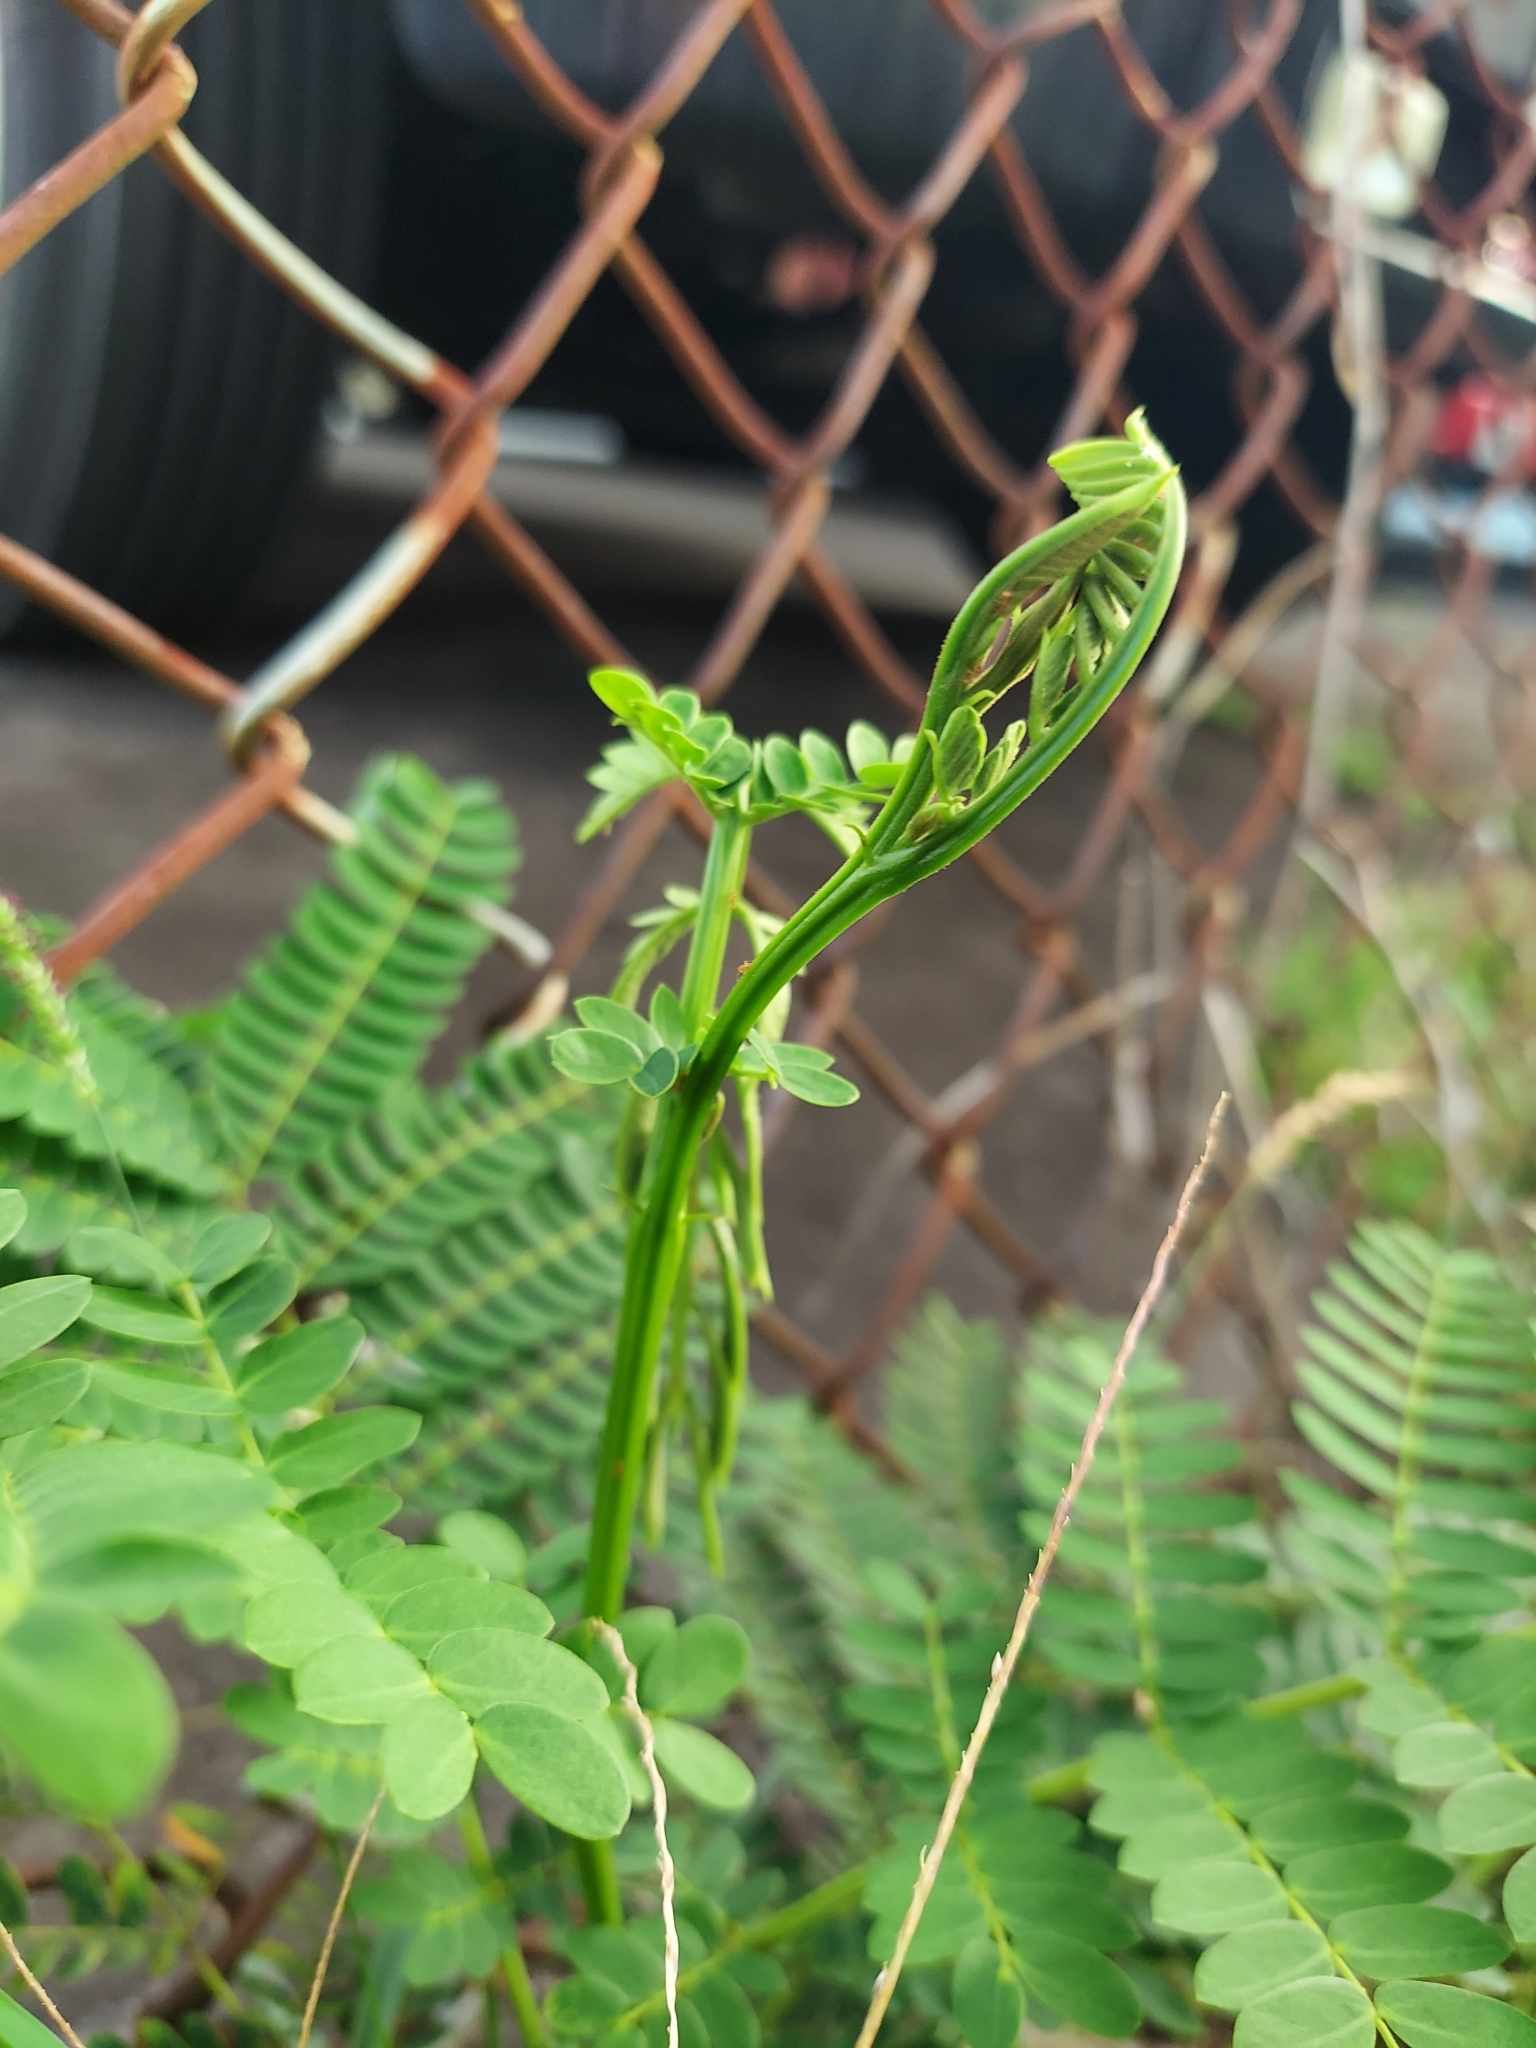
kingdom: Plantae
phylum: Tracheophyta
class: Magnoliopsida
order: Fabales
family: Fabaceae
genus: Falcataria
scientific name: Falcataria falcata
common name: Moluccan albizia
